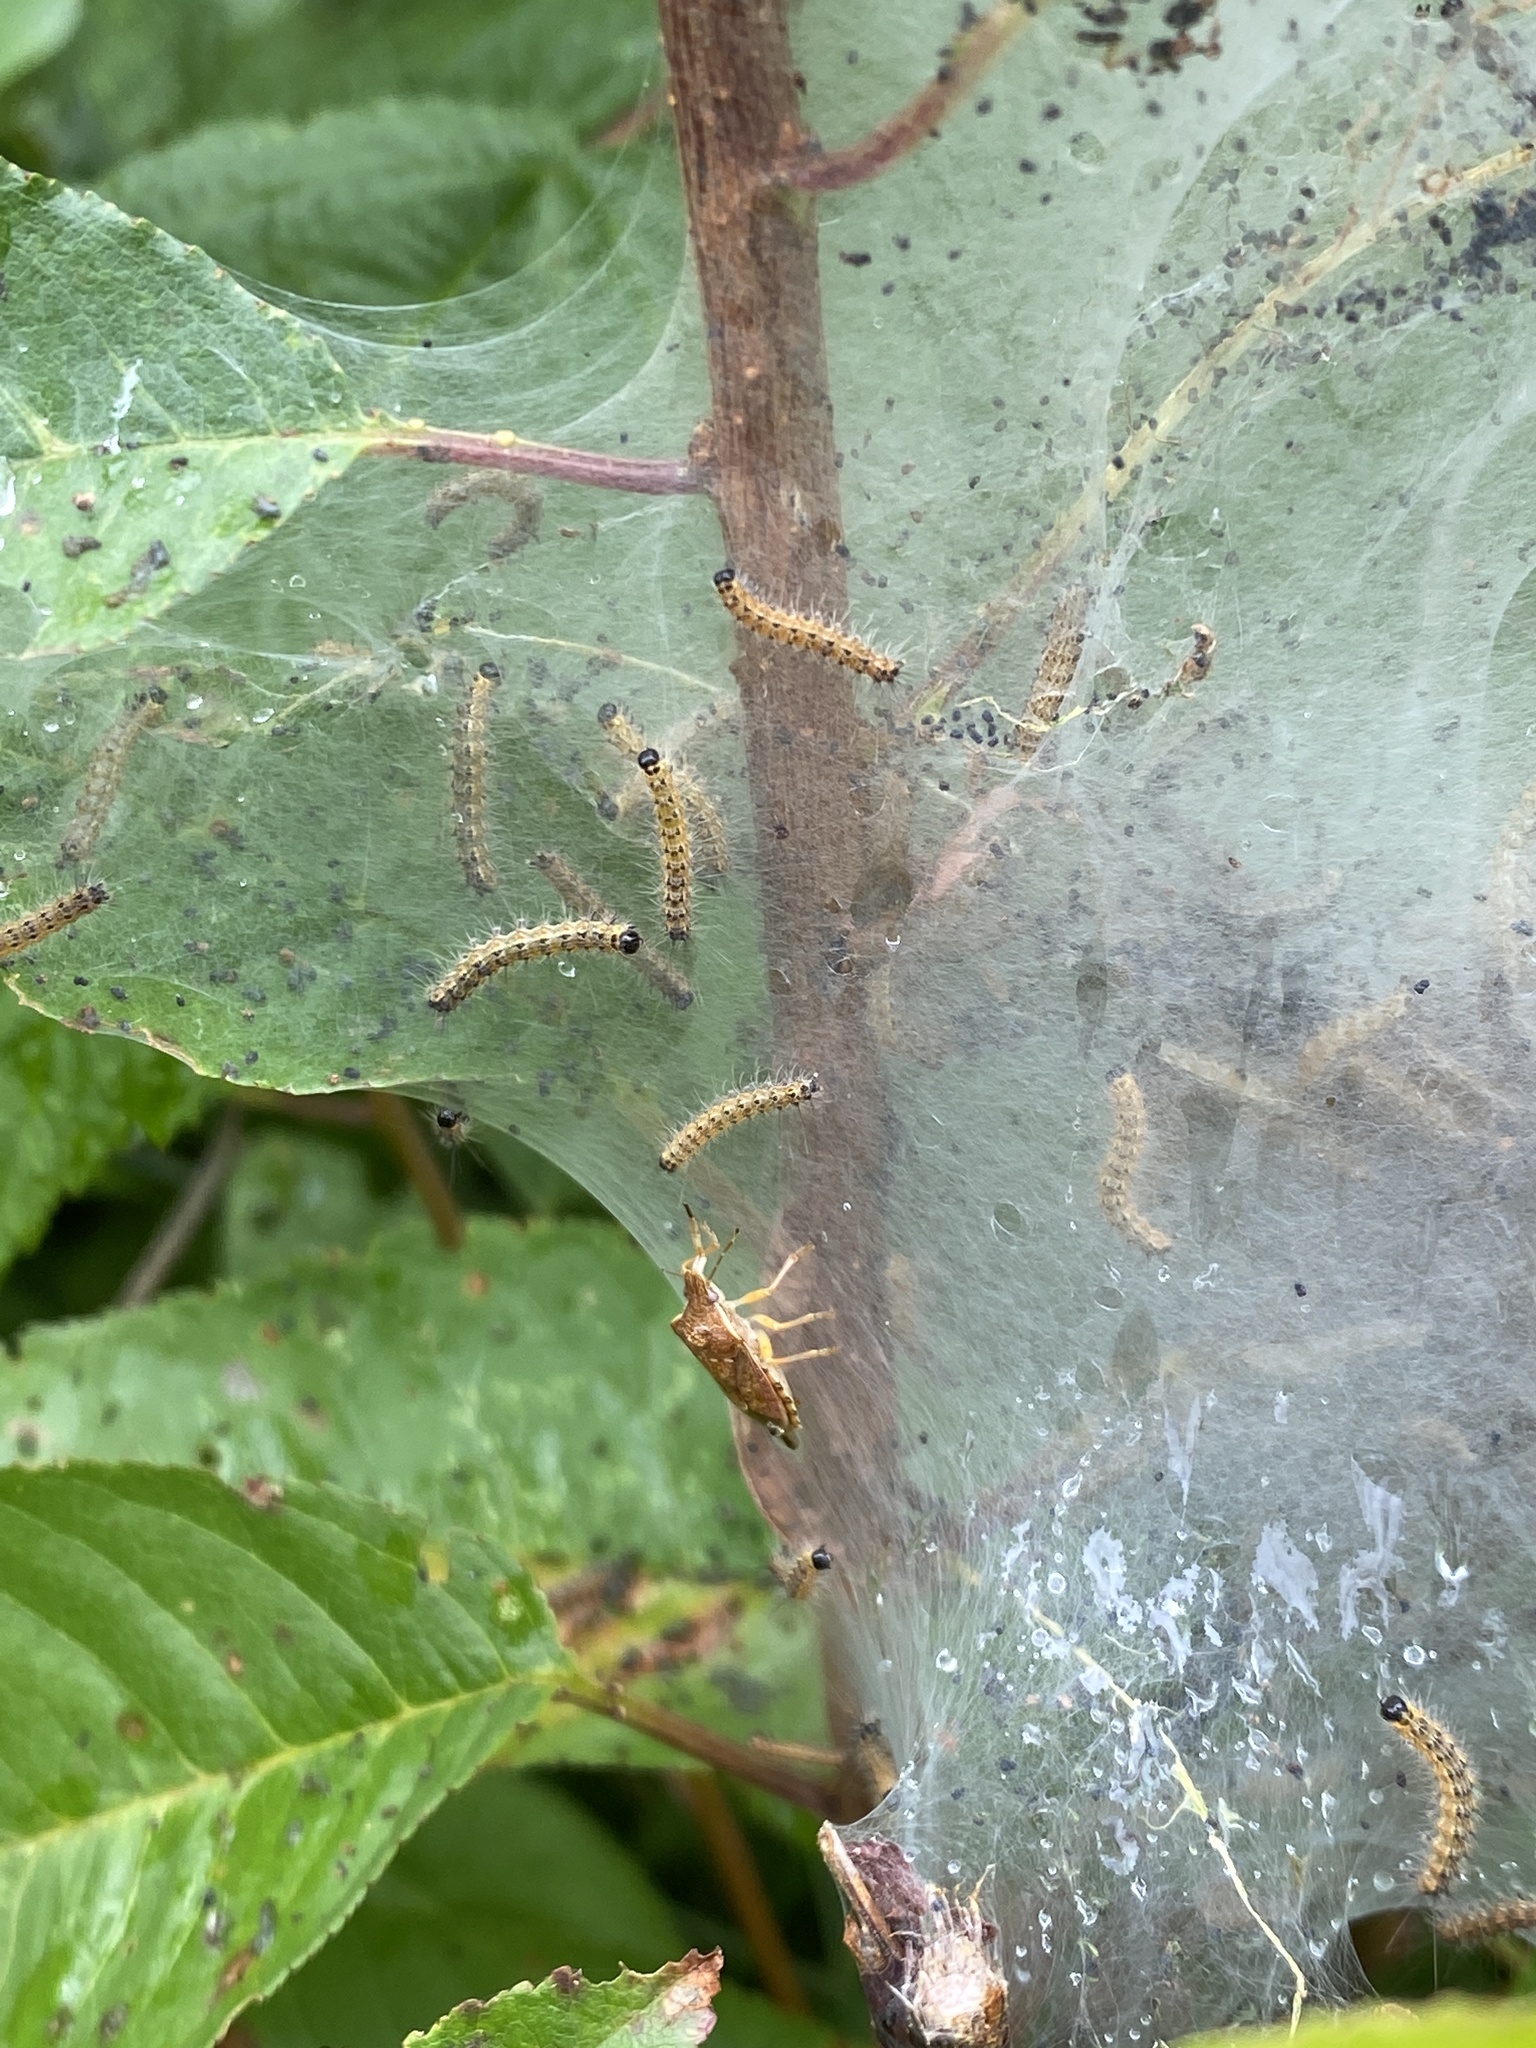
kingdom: Animalia
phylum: Arthropoda
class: Insecta
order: Lepidoptera
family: Erebidae
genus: Hyphantria
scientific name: Hyphantria cunea
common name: American white moth
